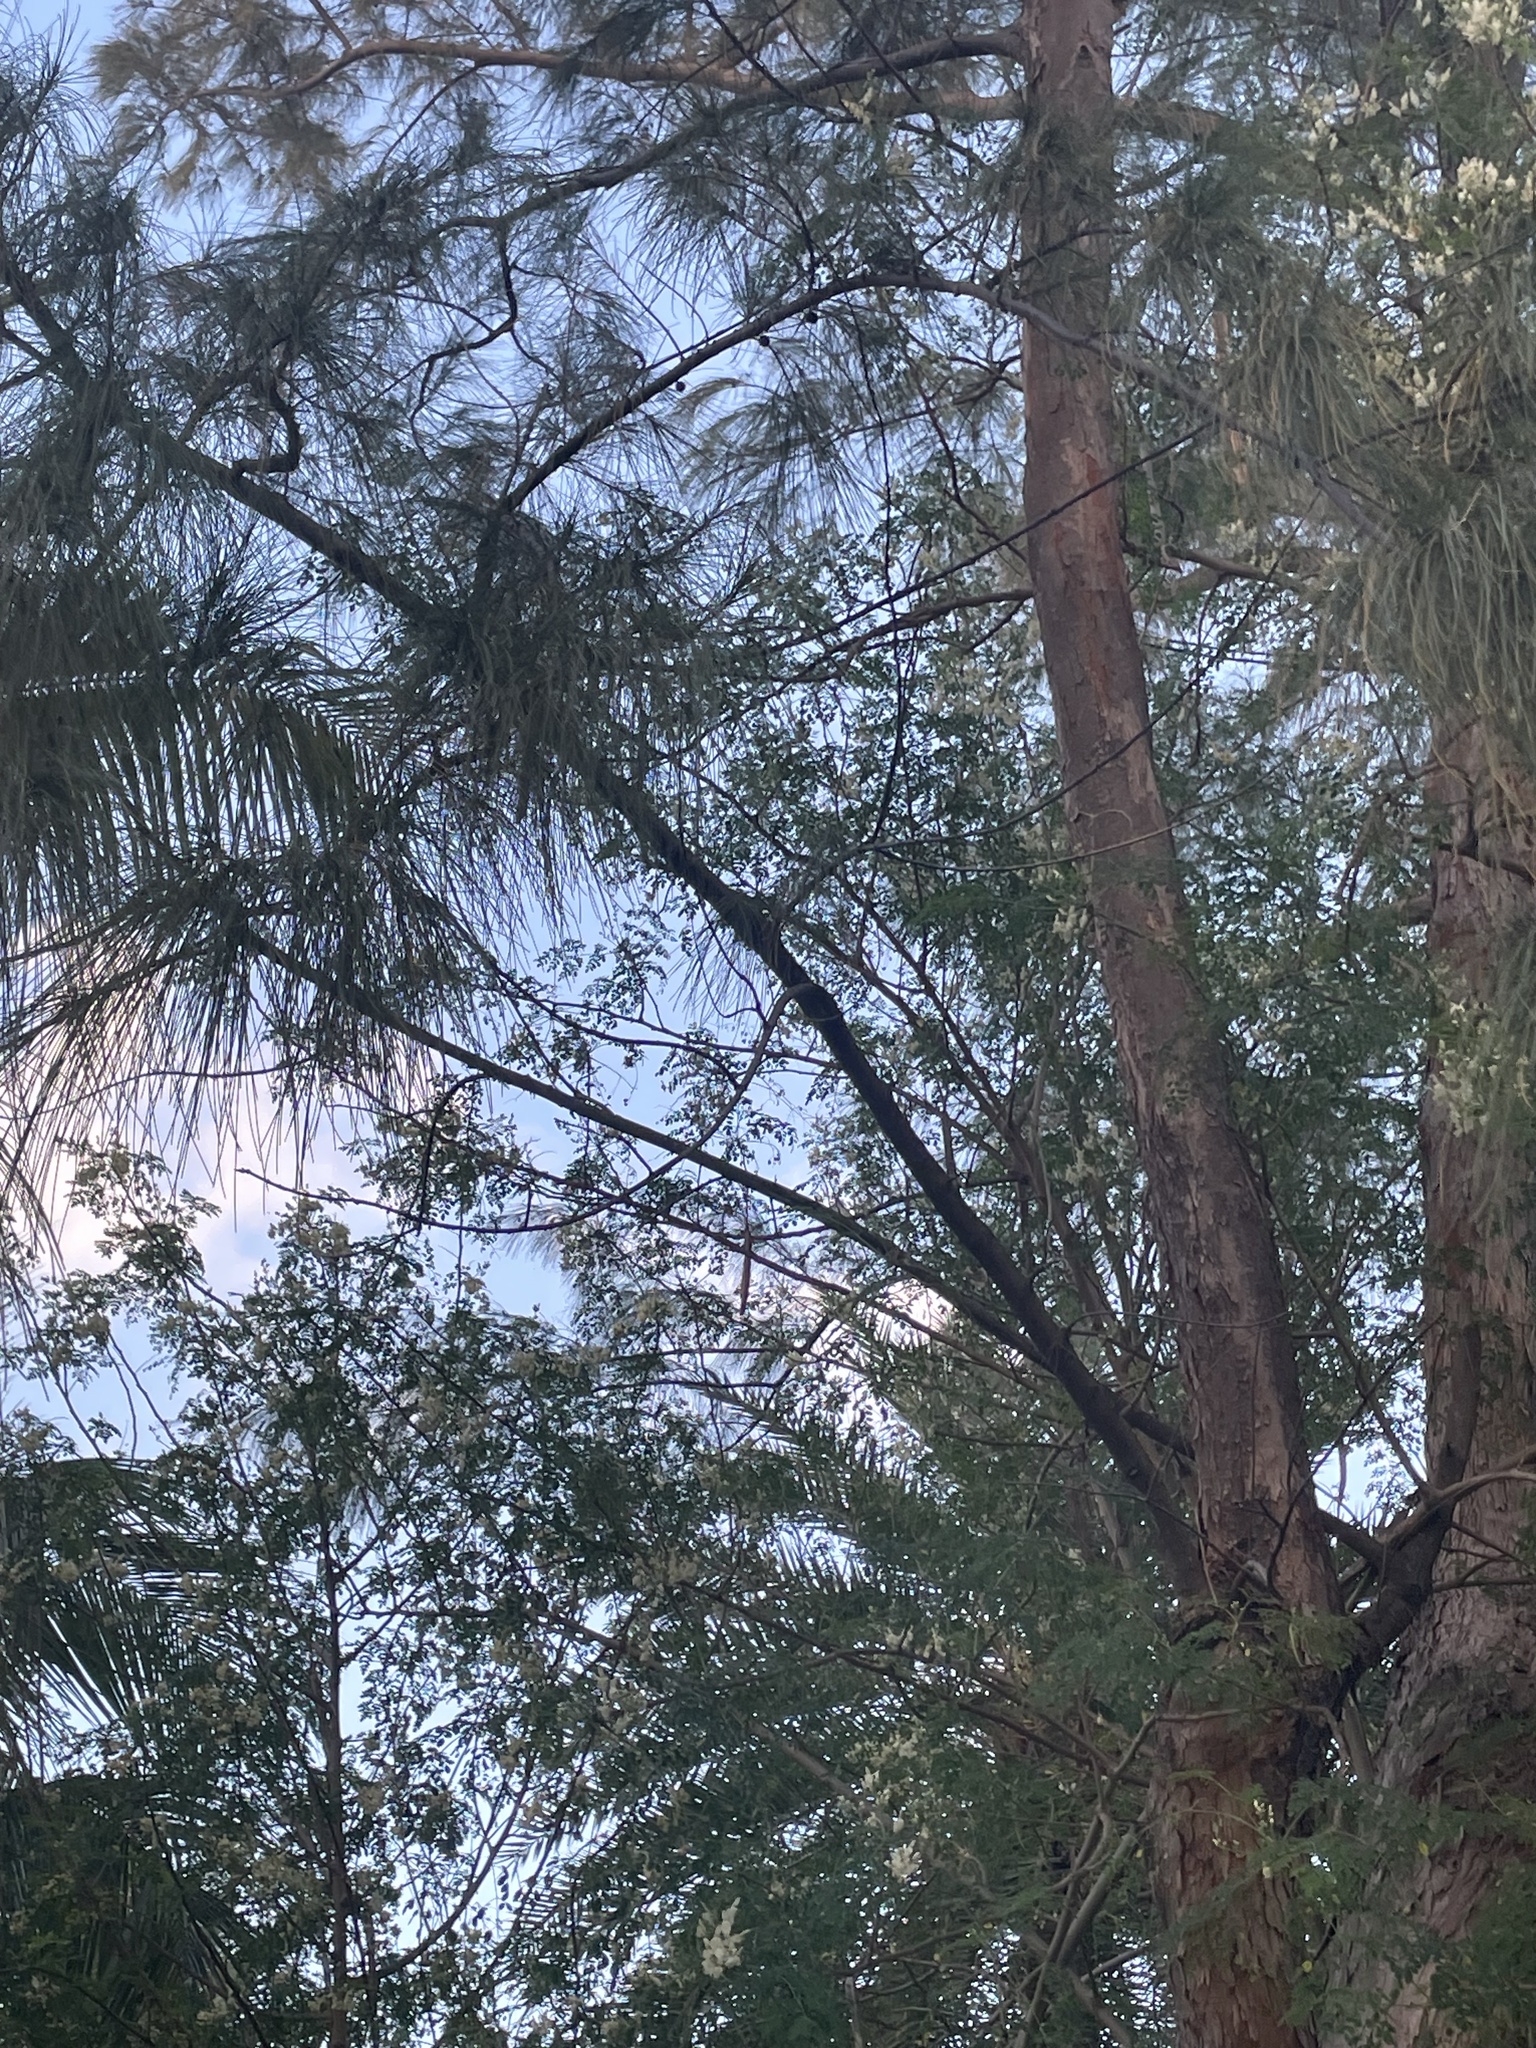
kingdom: Plantae
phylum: Tracheophyta
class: Magnoliopsida
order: Fagales
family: Casuarinaceae
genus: Casuarina
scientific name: Casuarina equisetifolia
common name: Beach sheoak
